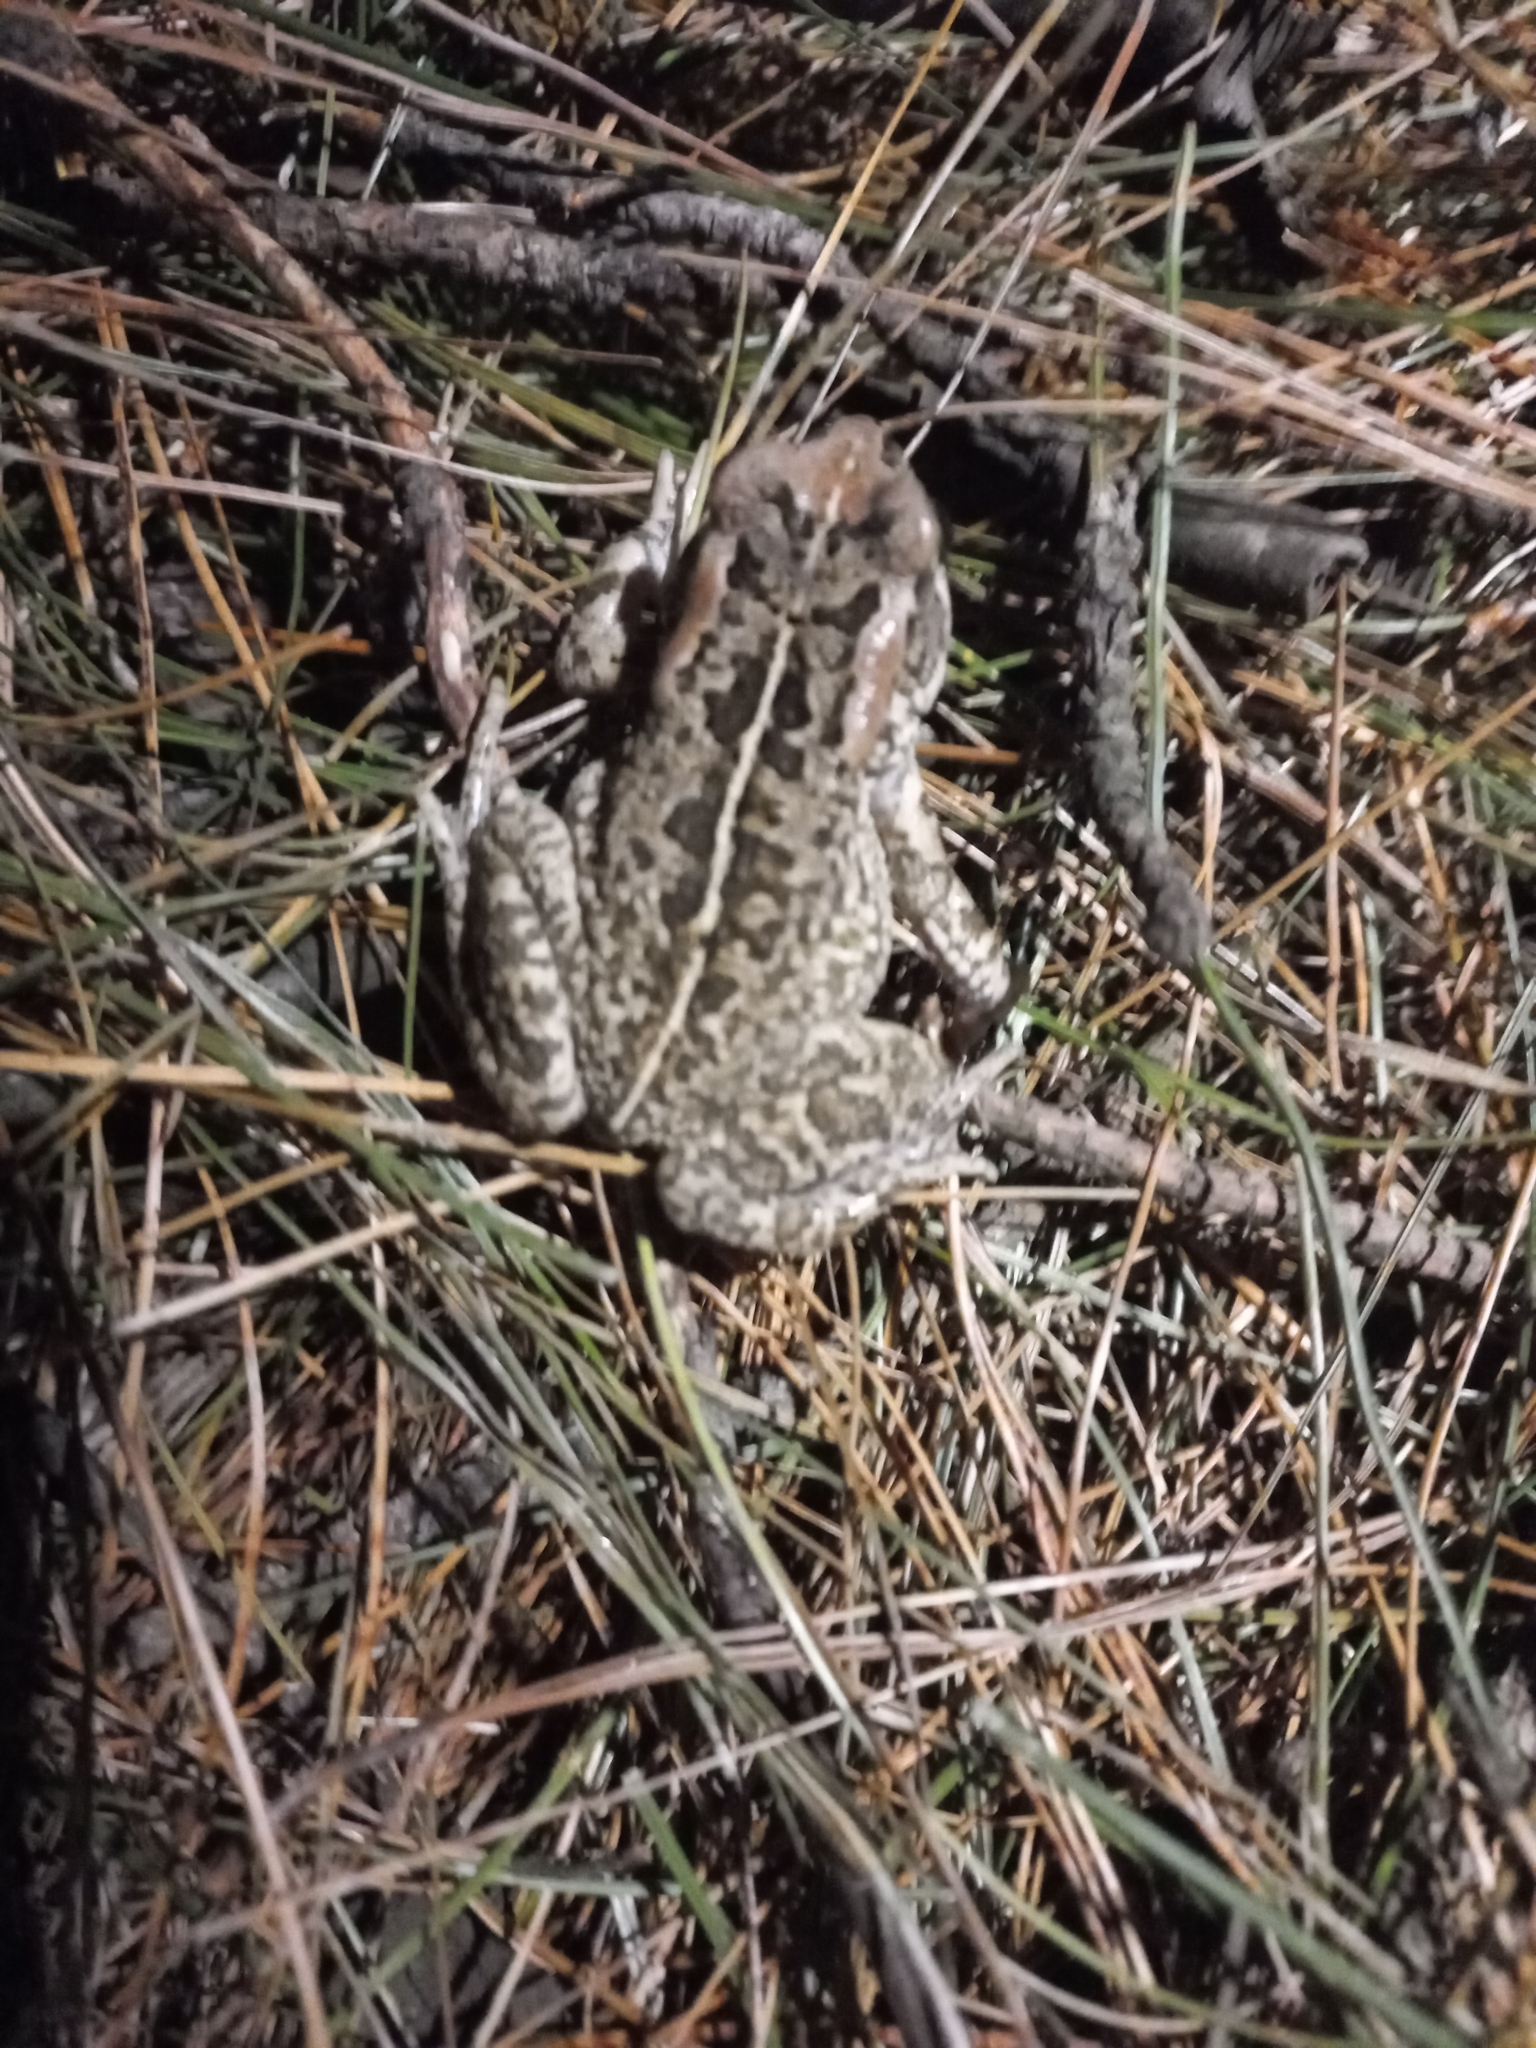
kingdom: Animalia
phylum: Chordata
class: Amphibia
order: Anura
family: Bufonidae
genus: Sclerophrys
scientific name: Sclerophrys capensis
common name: Ranger’s toad
